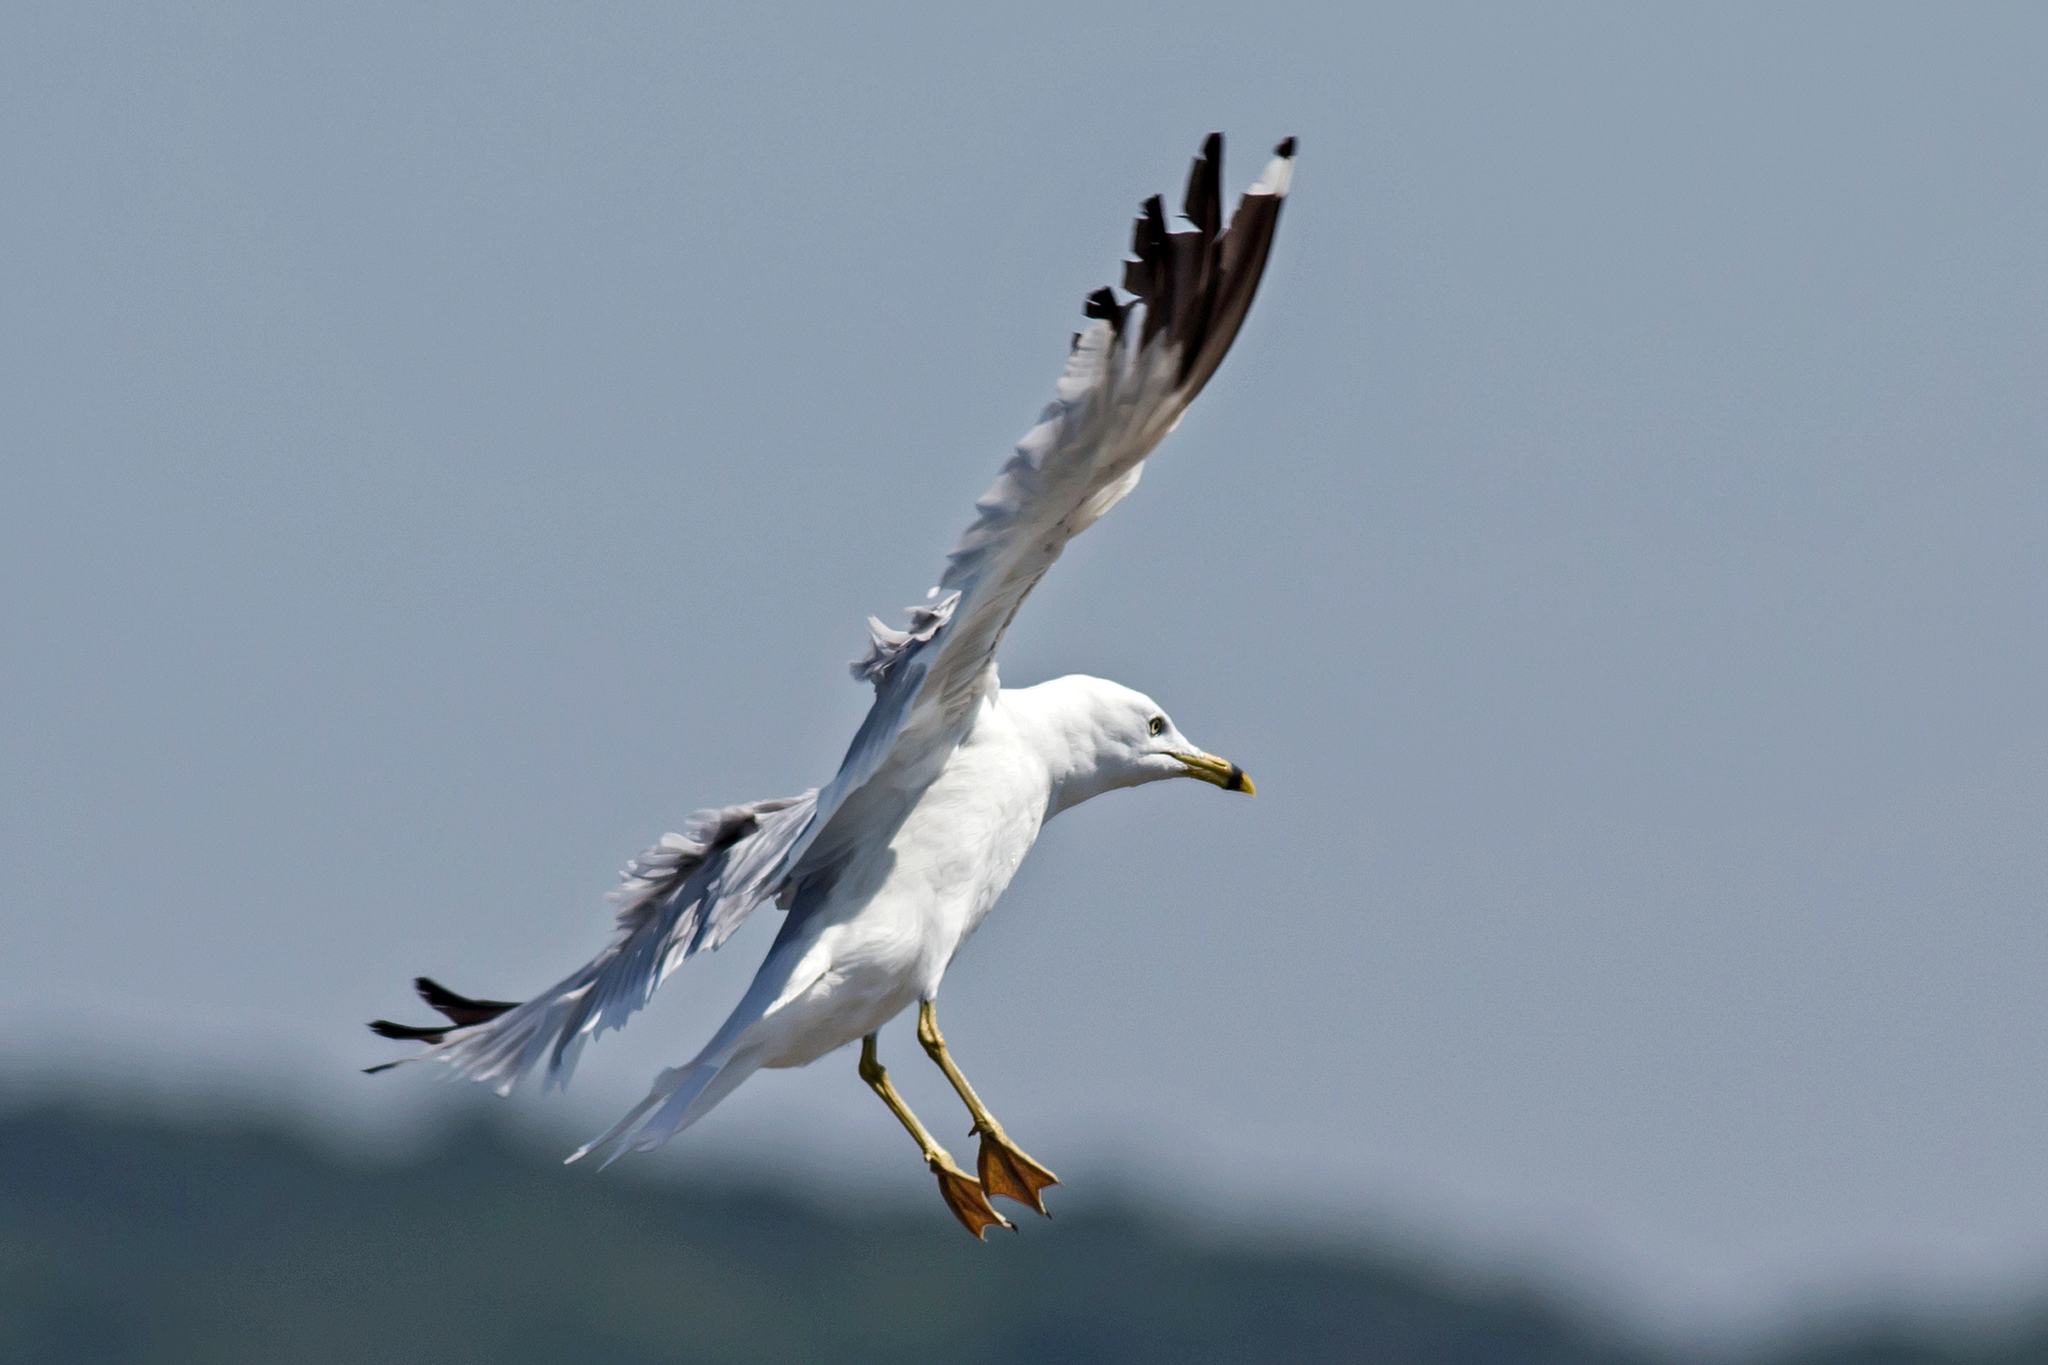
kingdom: Animalia
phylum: Chordata
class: Aves
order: Charadriiformes
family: Laridae
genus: Larus
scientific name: Larus delawarensis
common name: Ring-billed gull
